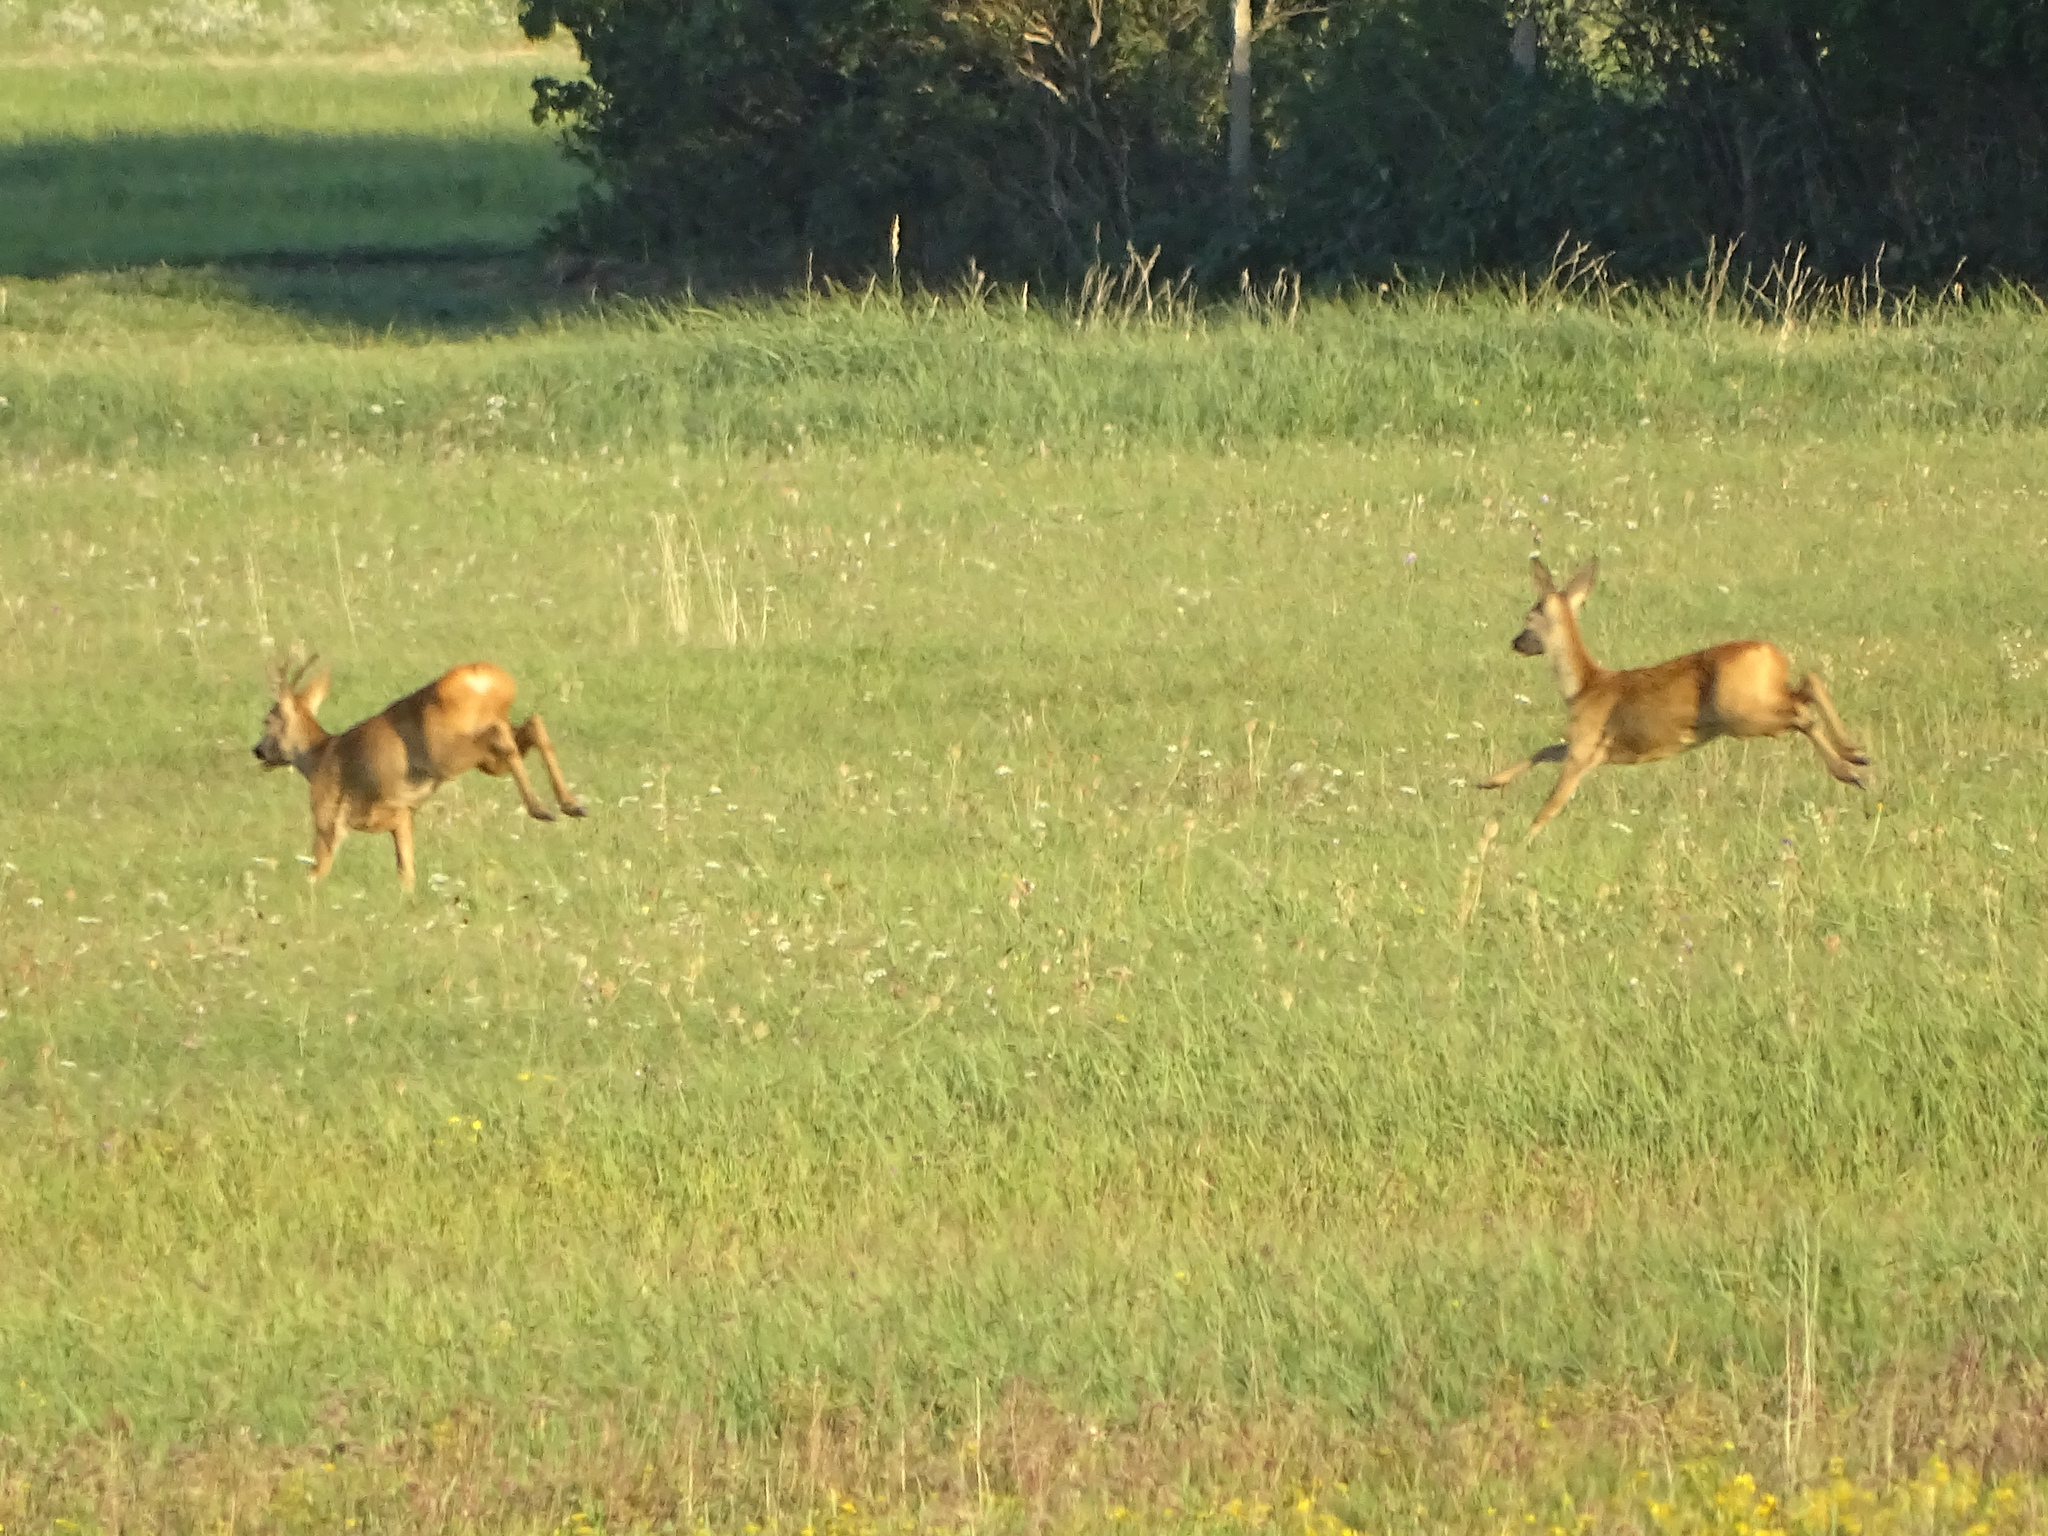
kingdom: Animalia
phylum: Chordata
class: Mammalia
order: Artiodactyla
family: Cervidae
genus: Capreolus
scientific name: Capreolus capreolus
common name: Western roe deer
